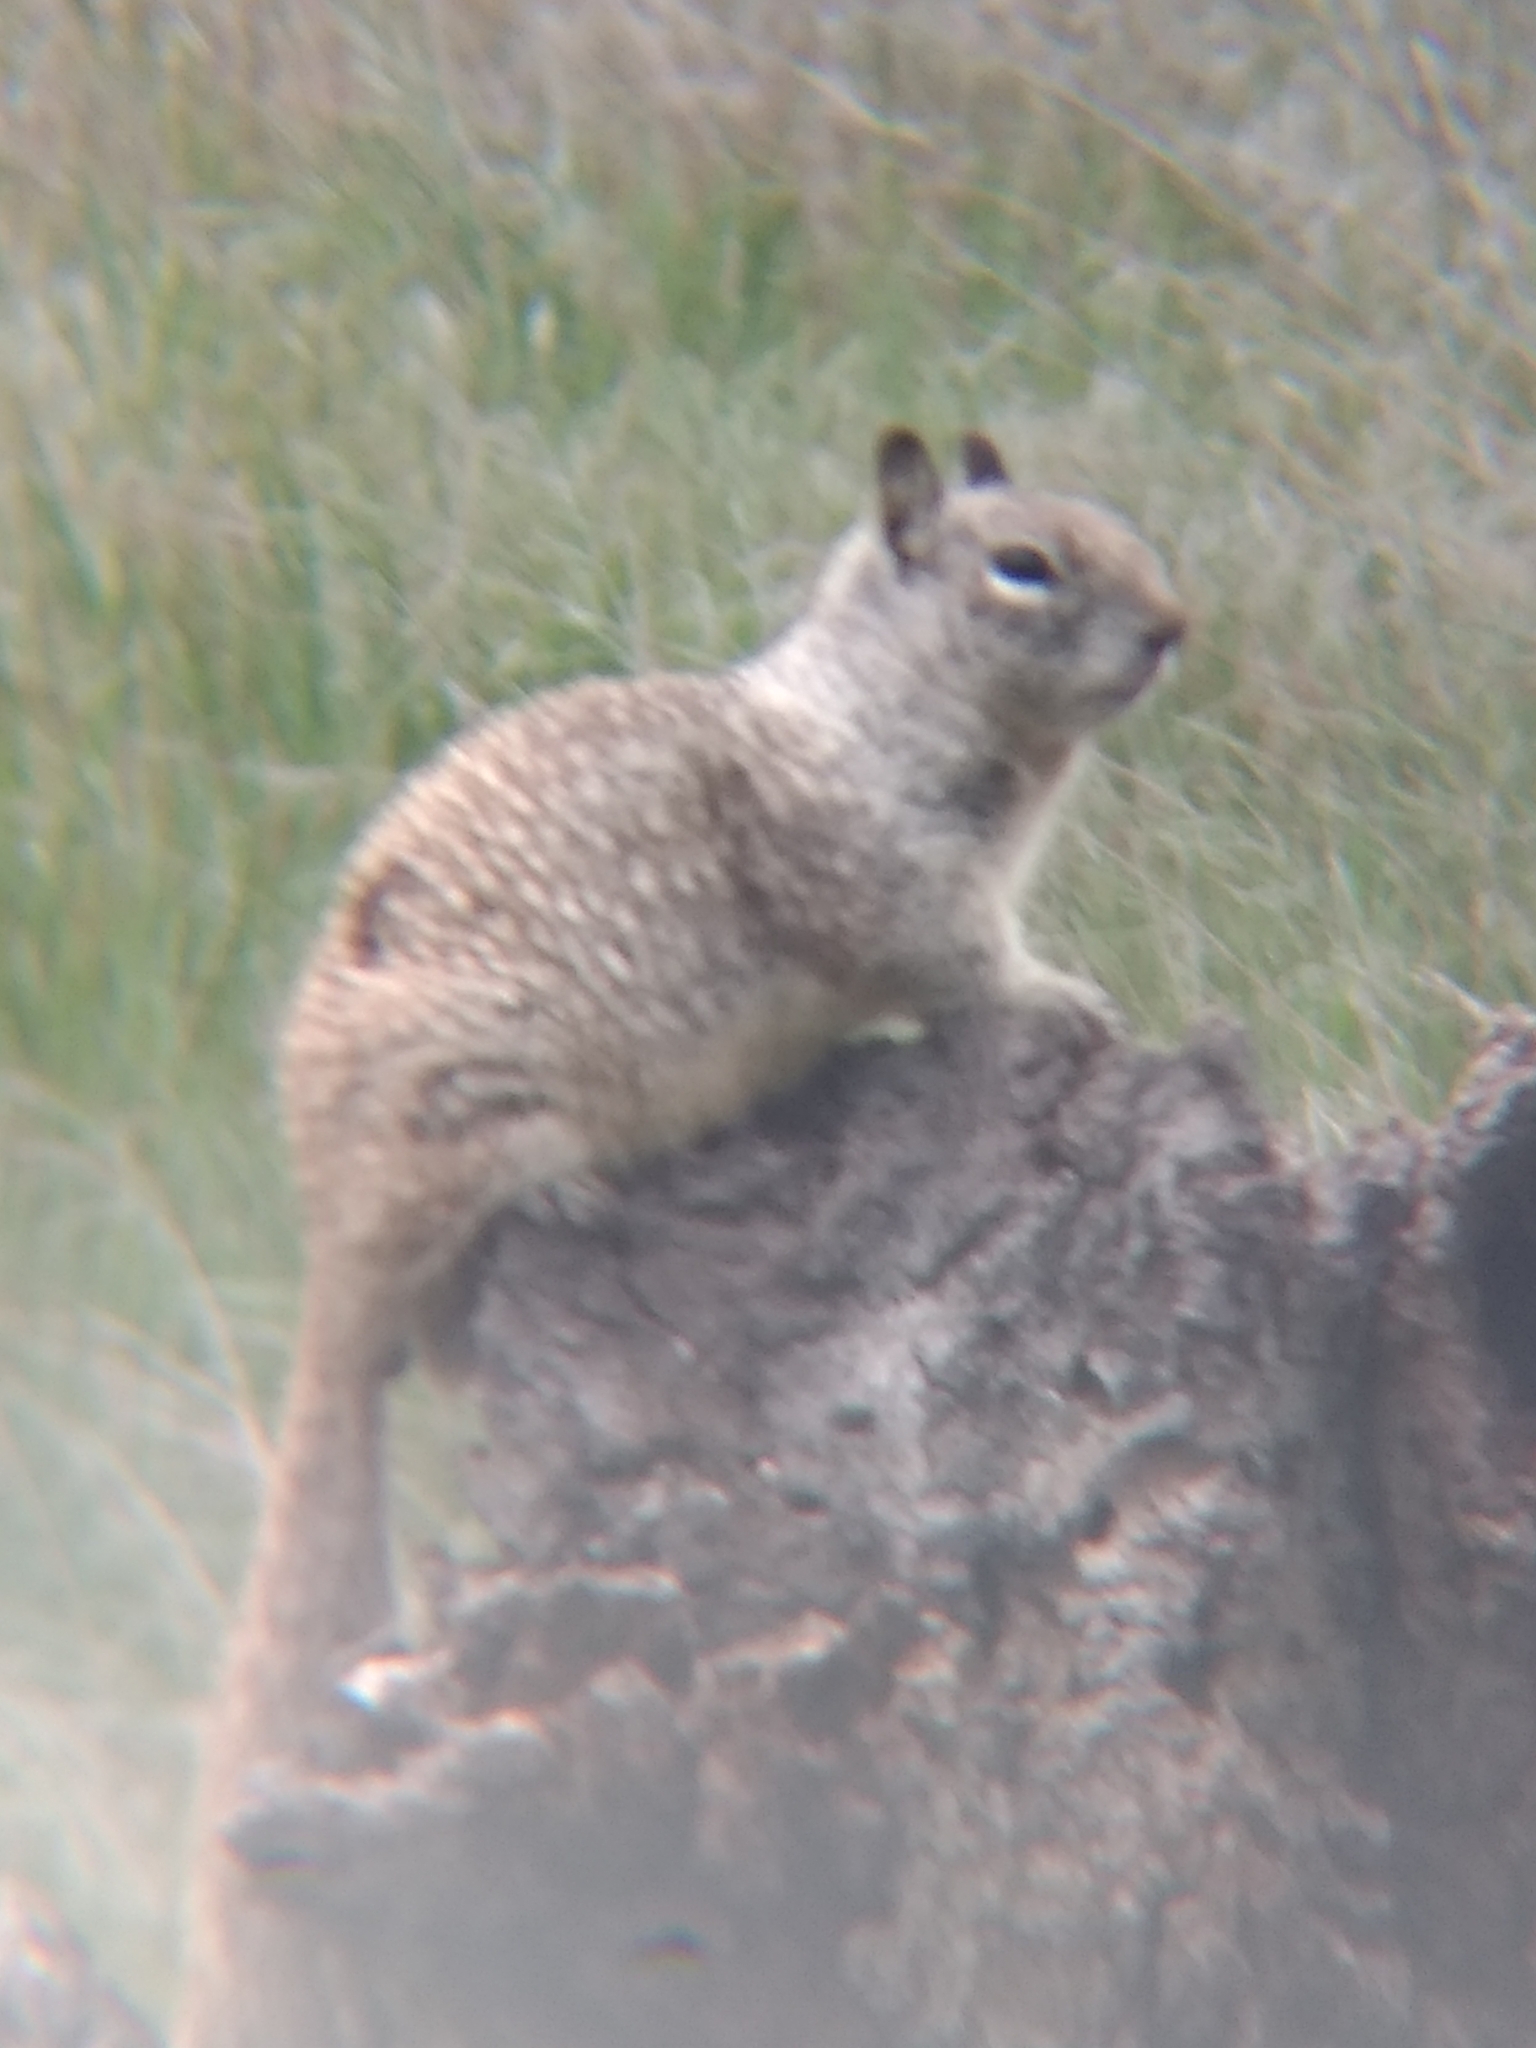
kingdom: Animalia
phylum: Chordata
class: Mammalia
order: Rodentia
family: Sciuridae
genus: Otospermophilus
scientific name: Otospermophilus beecheyi
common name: California ground squirrel
